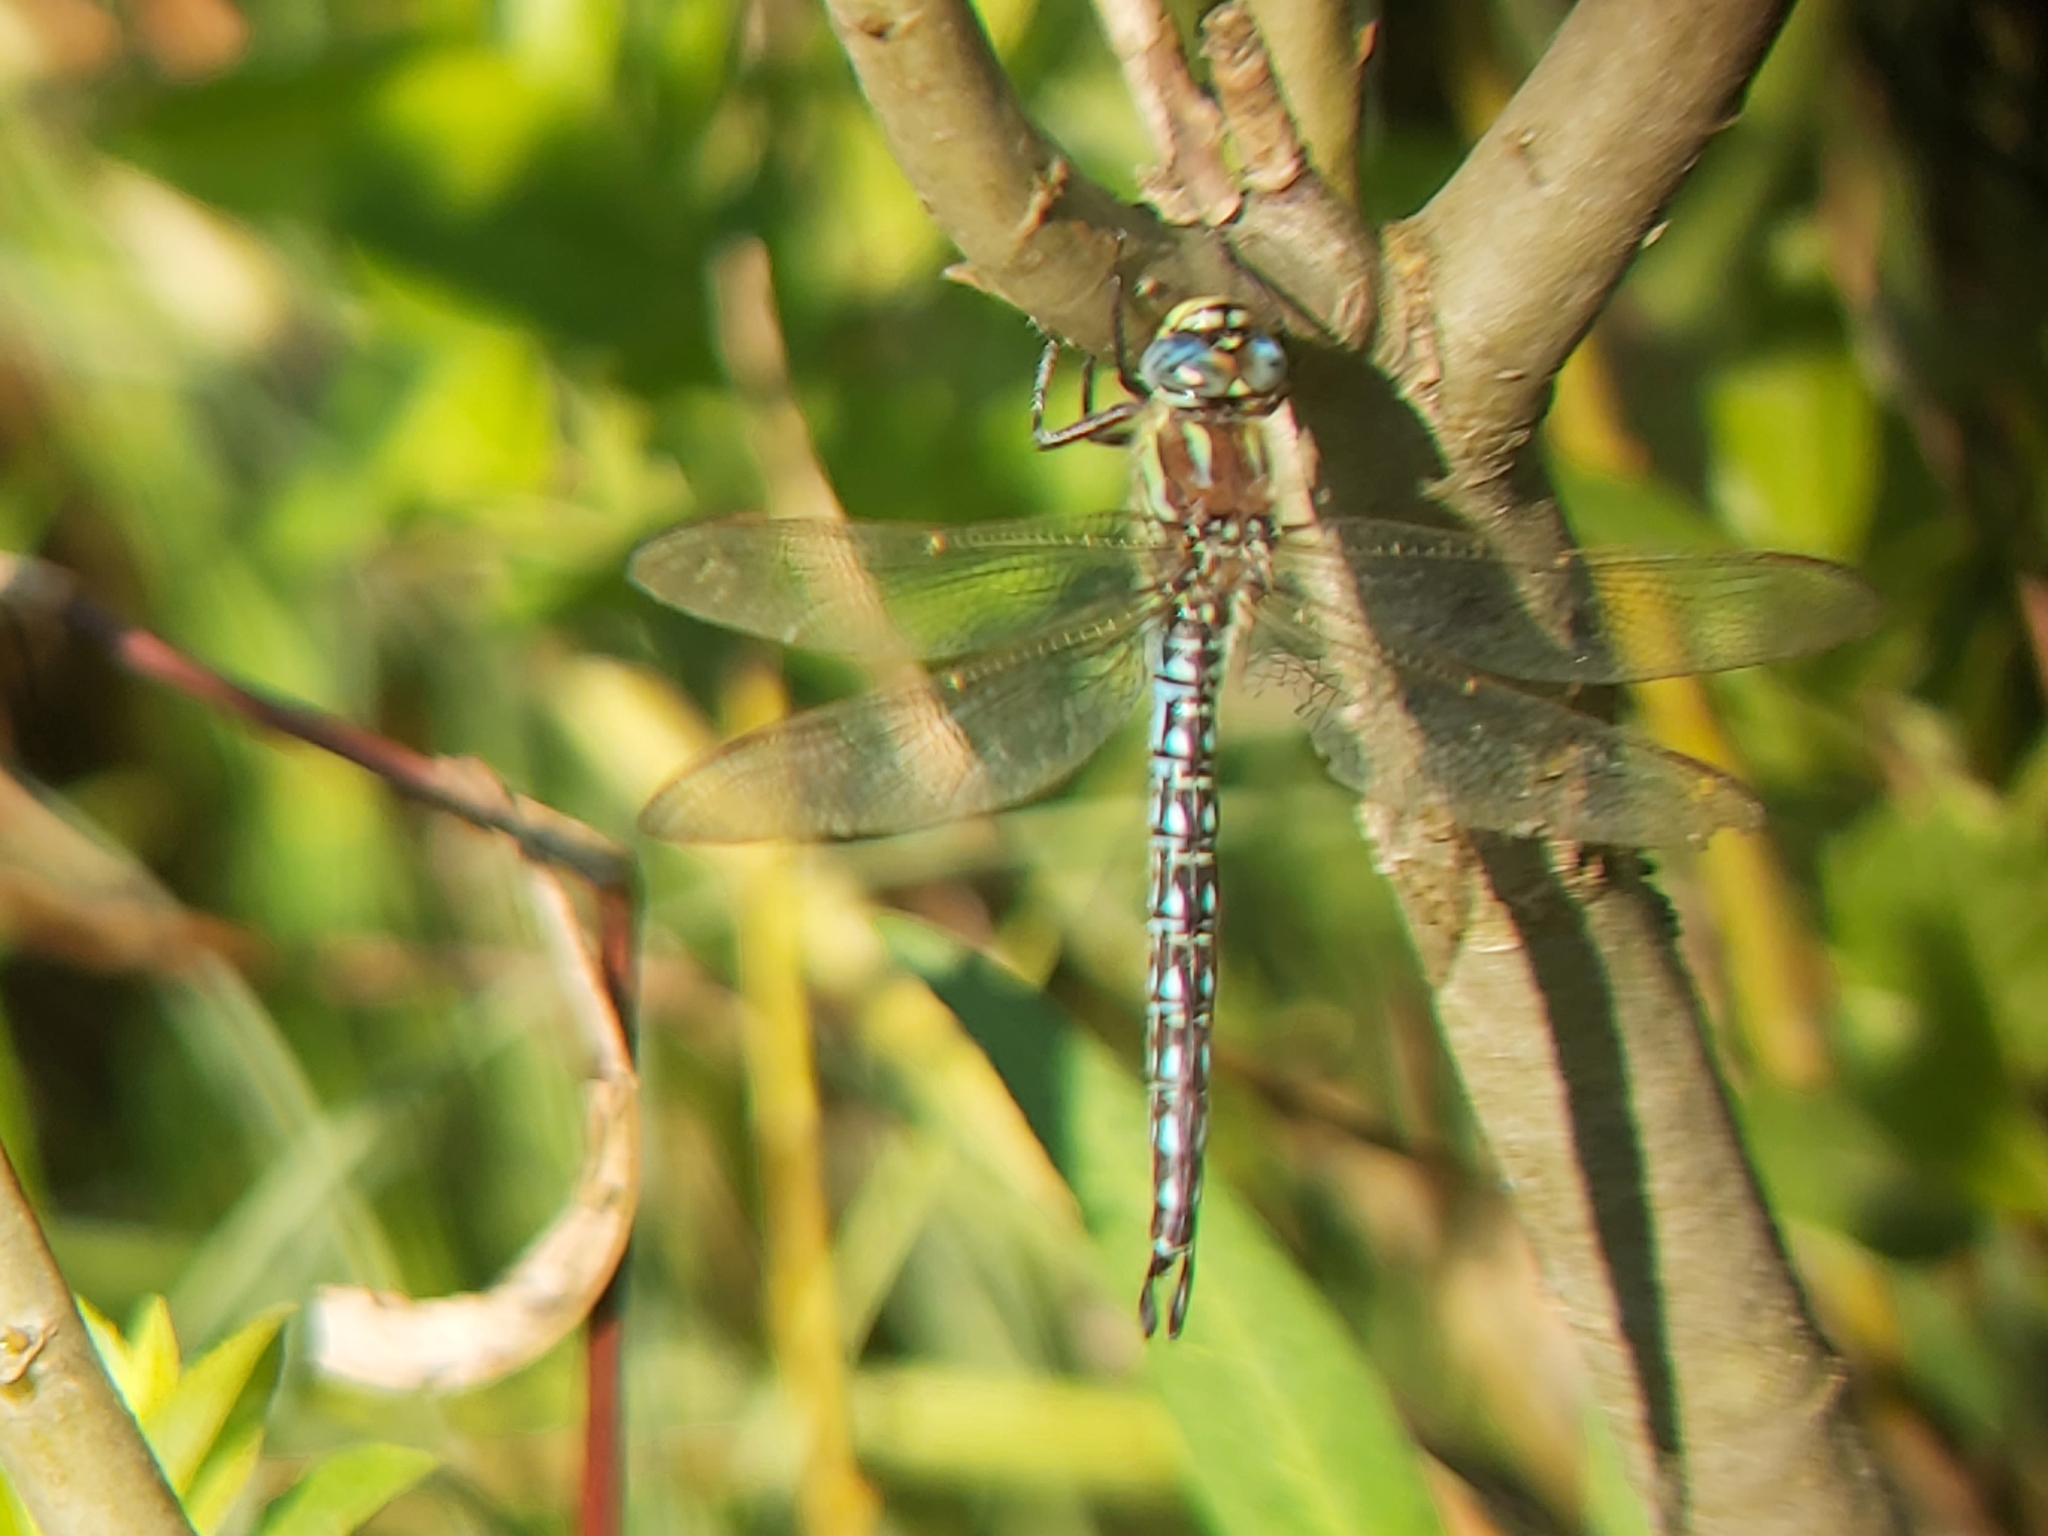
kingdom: Animalia
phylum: Arthropoda
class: Insecta
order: Odonata
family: Aeshnidae
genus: Brachytron
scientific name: Brachytron pratense
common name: Hairy hawker
